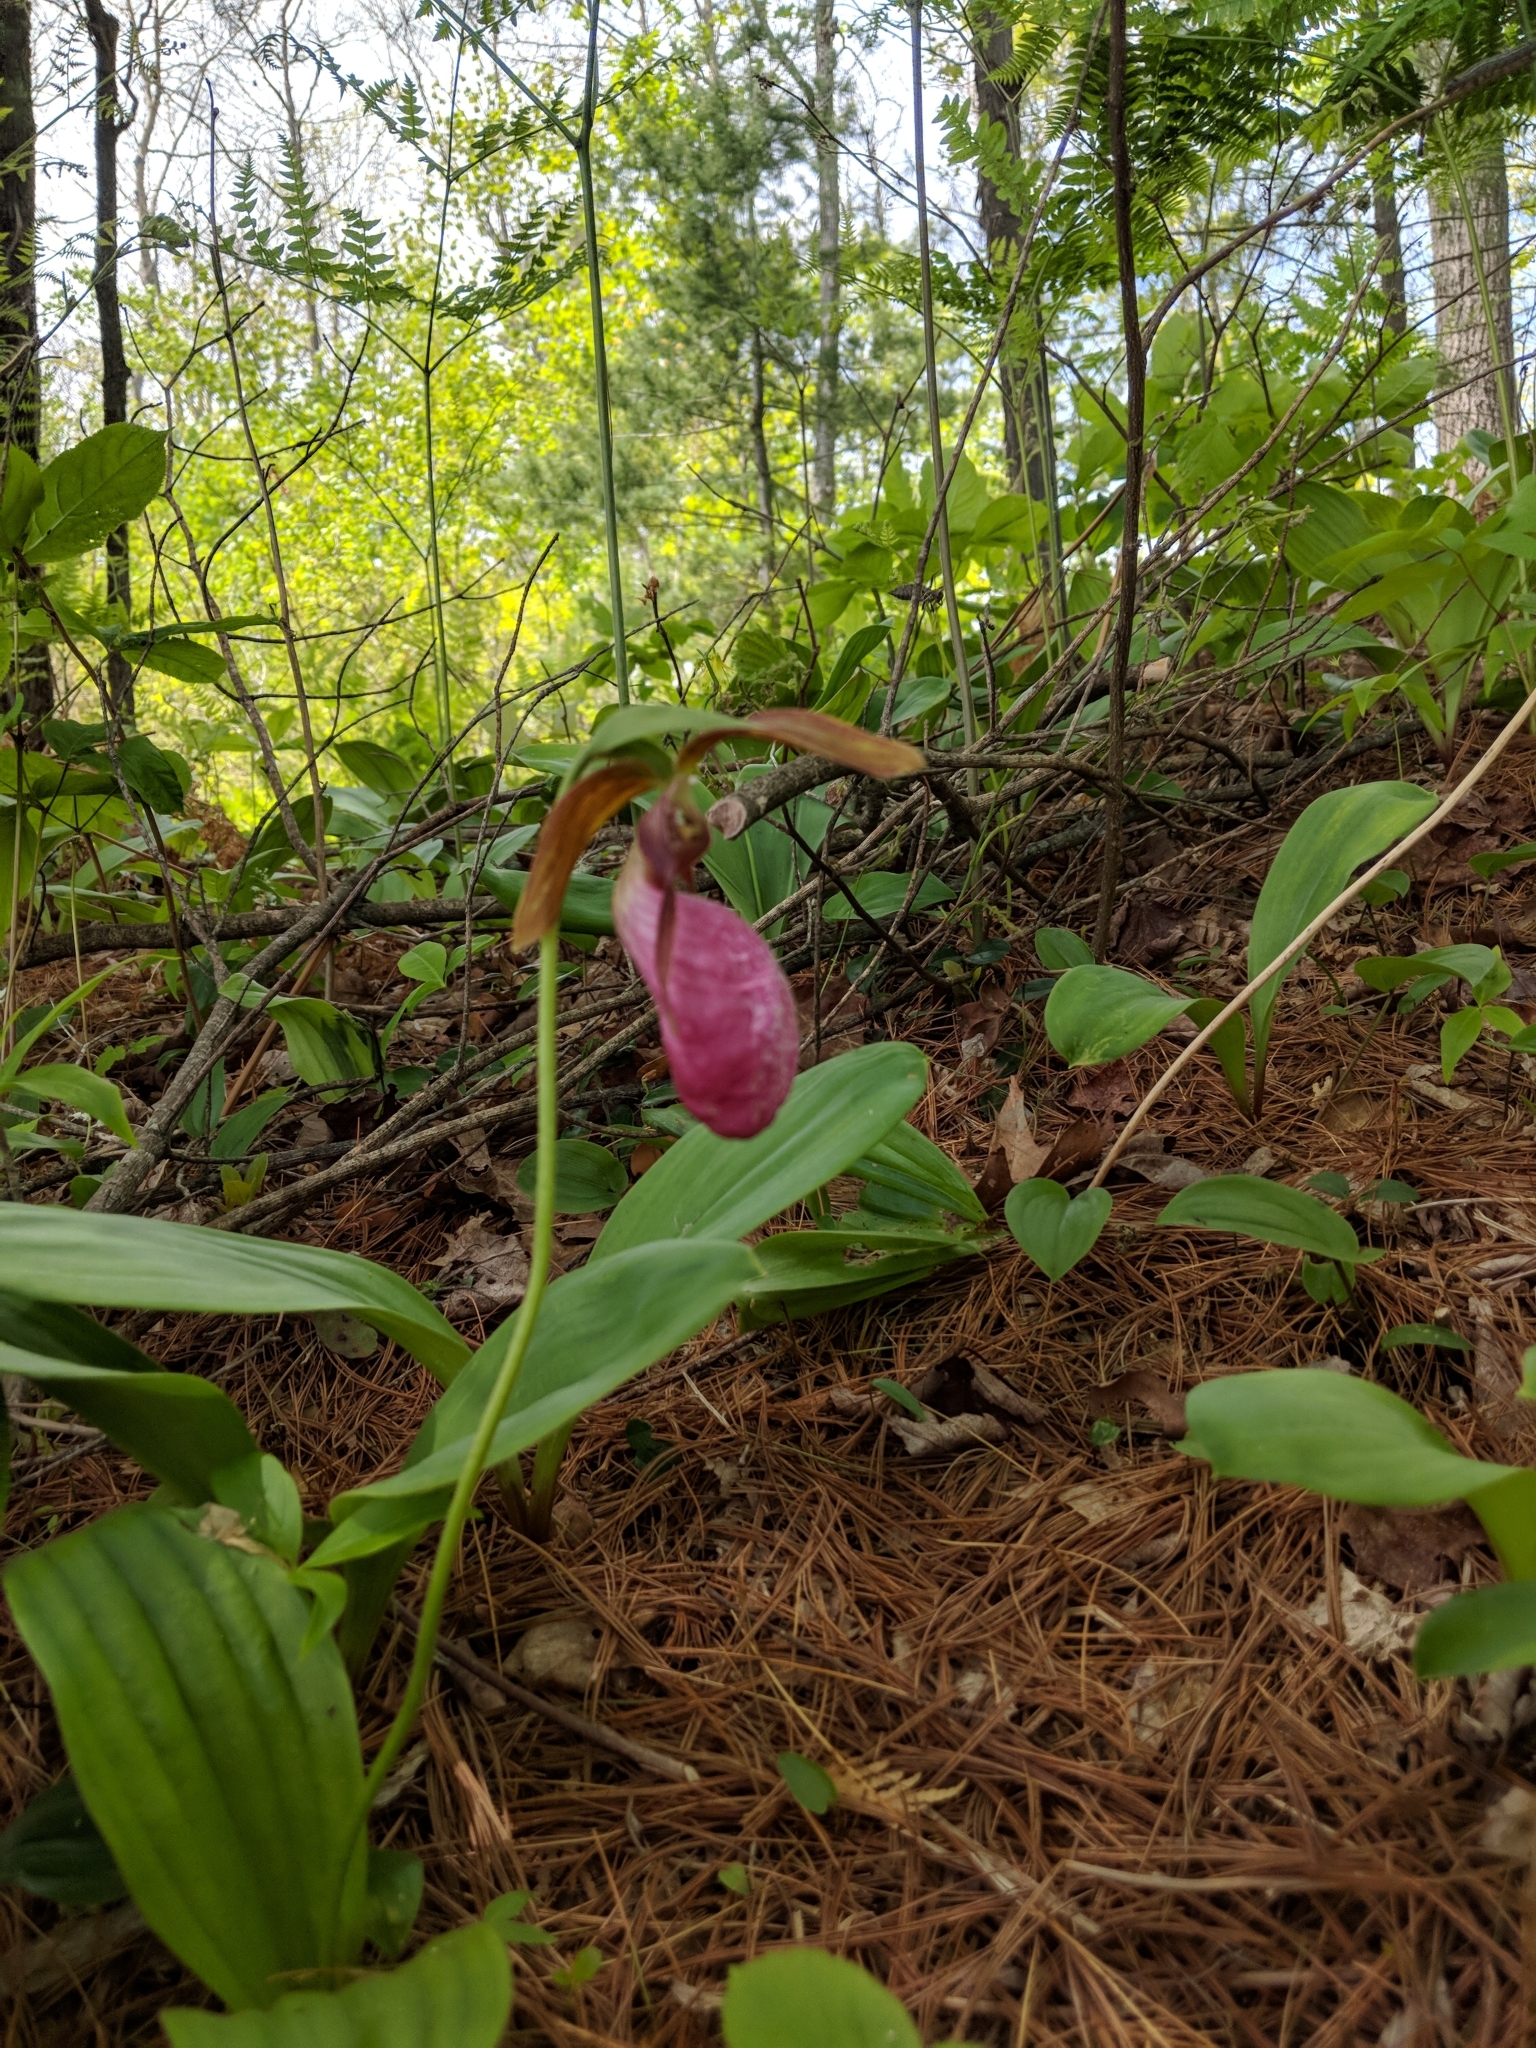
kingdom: Plantae
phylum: Tracheophyta
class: Liliopsida
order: Asparagales
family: Orchidaceae
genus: Cypripedium
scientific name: Cypripedium acaule
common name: Pink lady's-slipper
